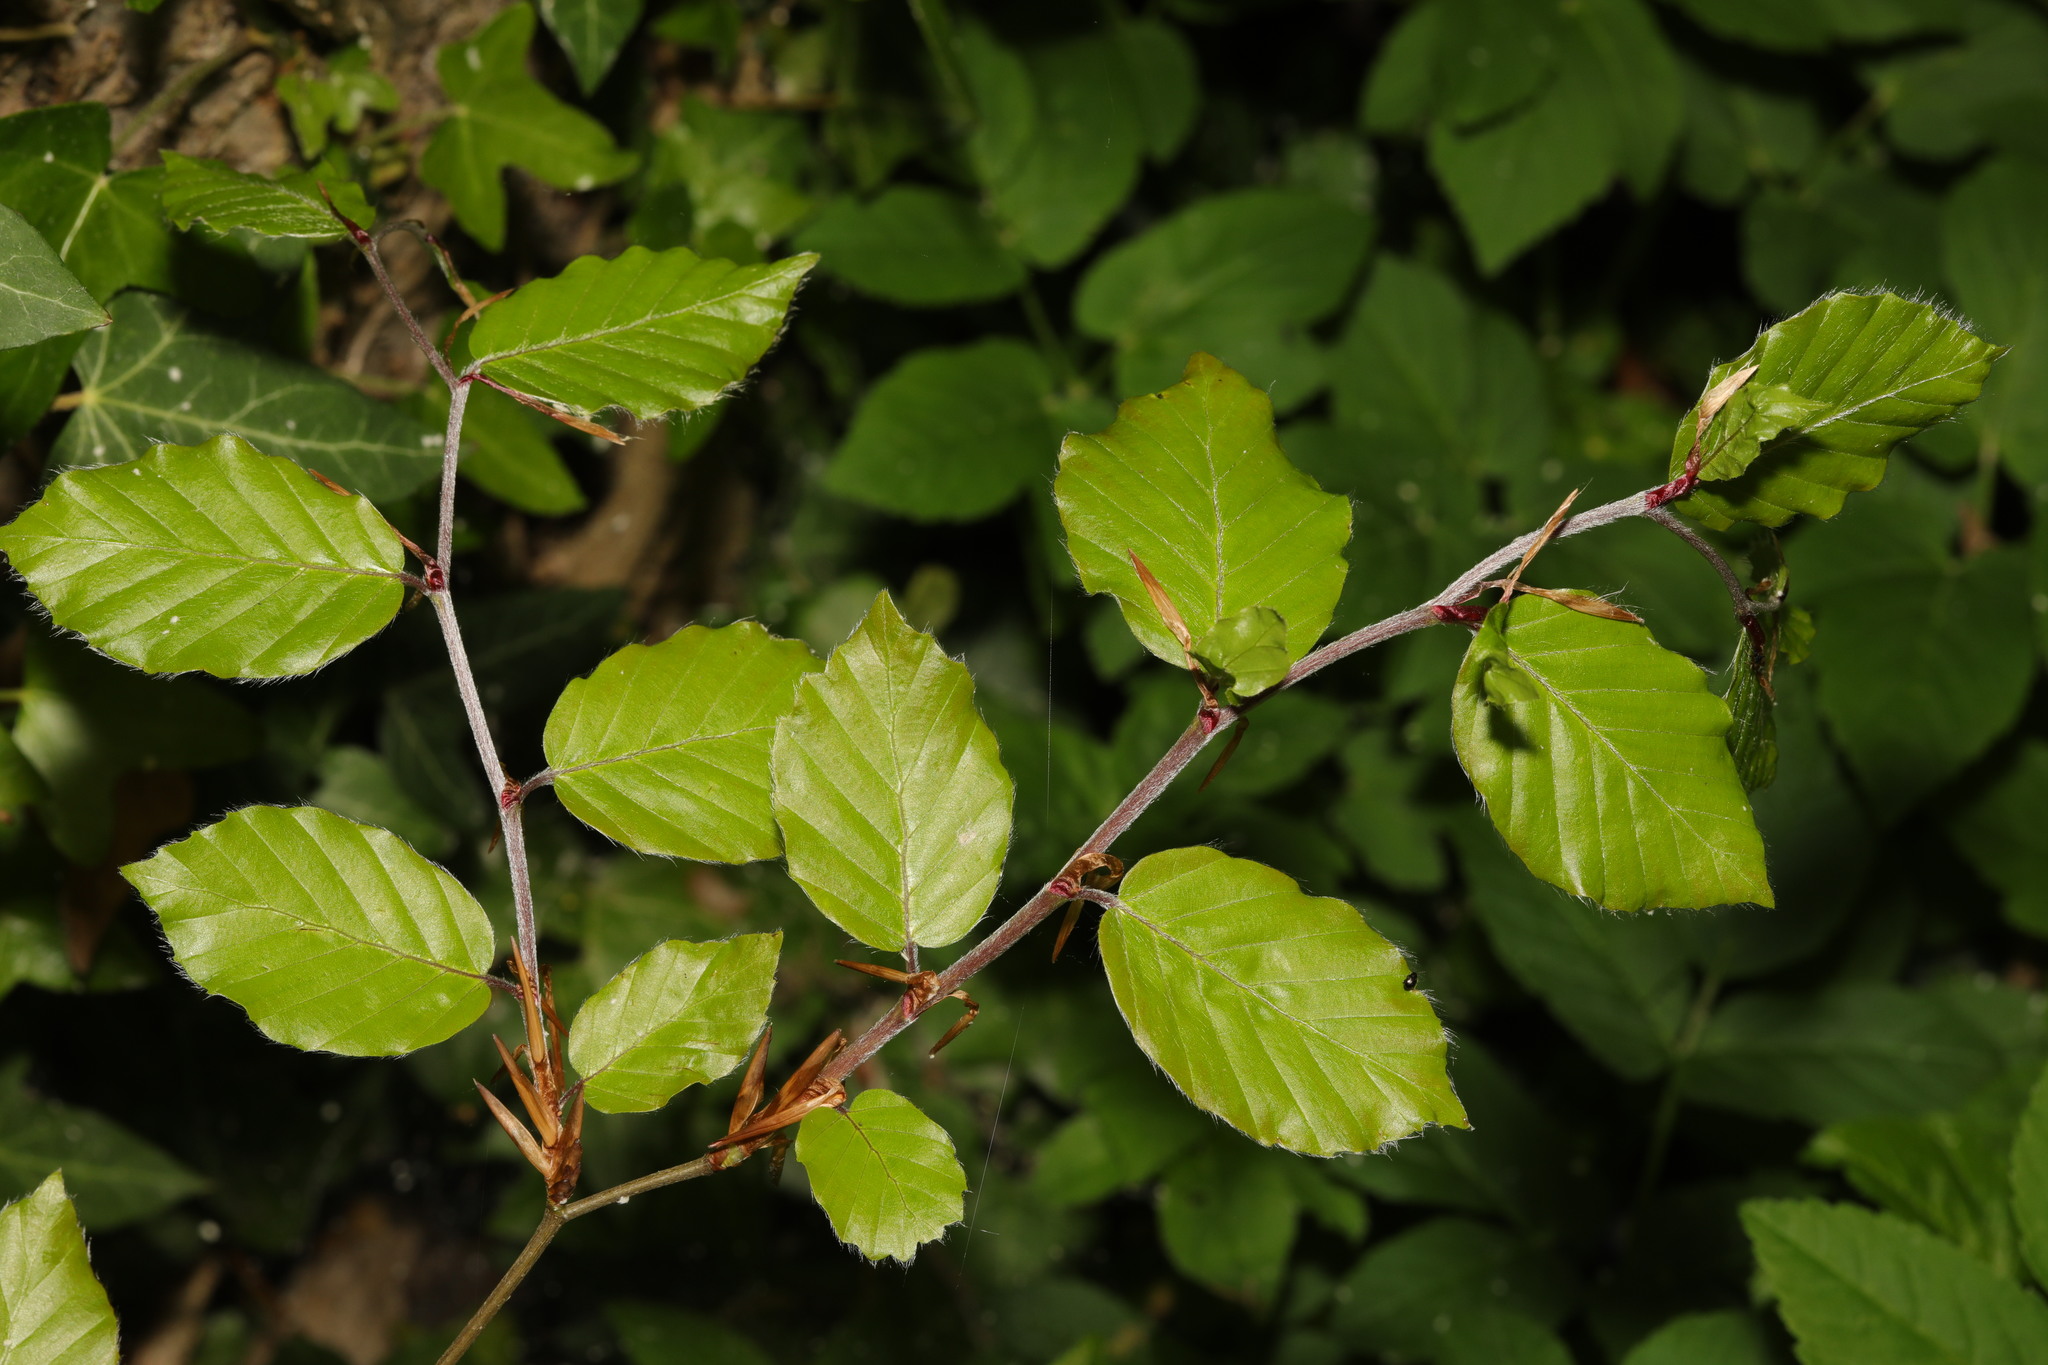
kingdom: Plantae
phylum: Tracheophyta
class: Magnoliopsida
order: Fagales
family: Fagaceae
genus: Fagus
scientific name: Fagus sylvatica
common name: Beech
